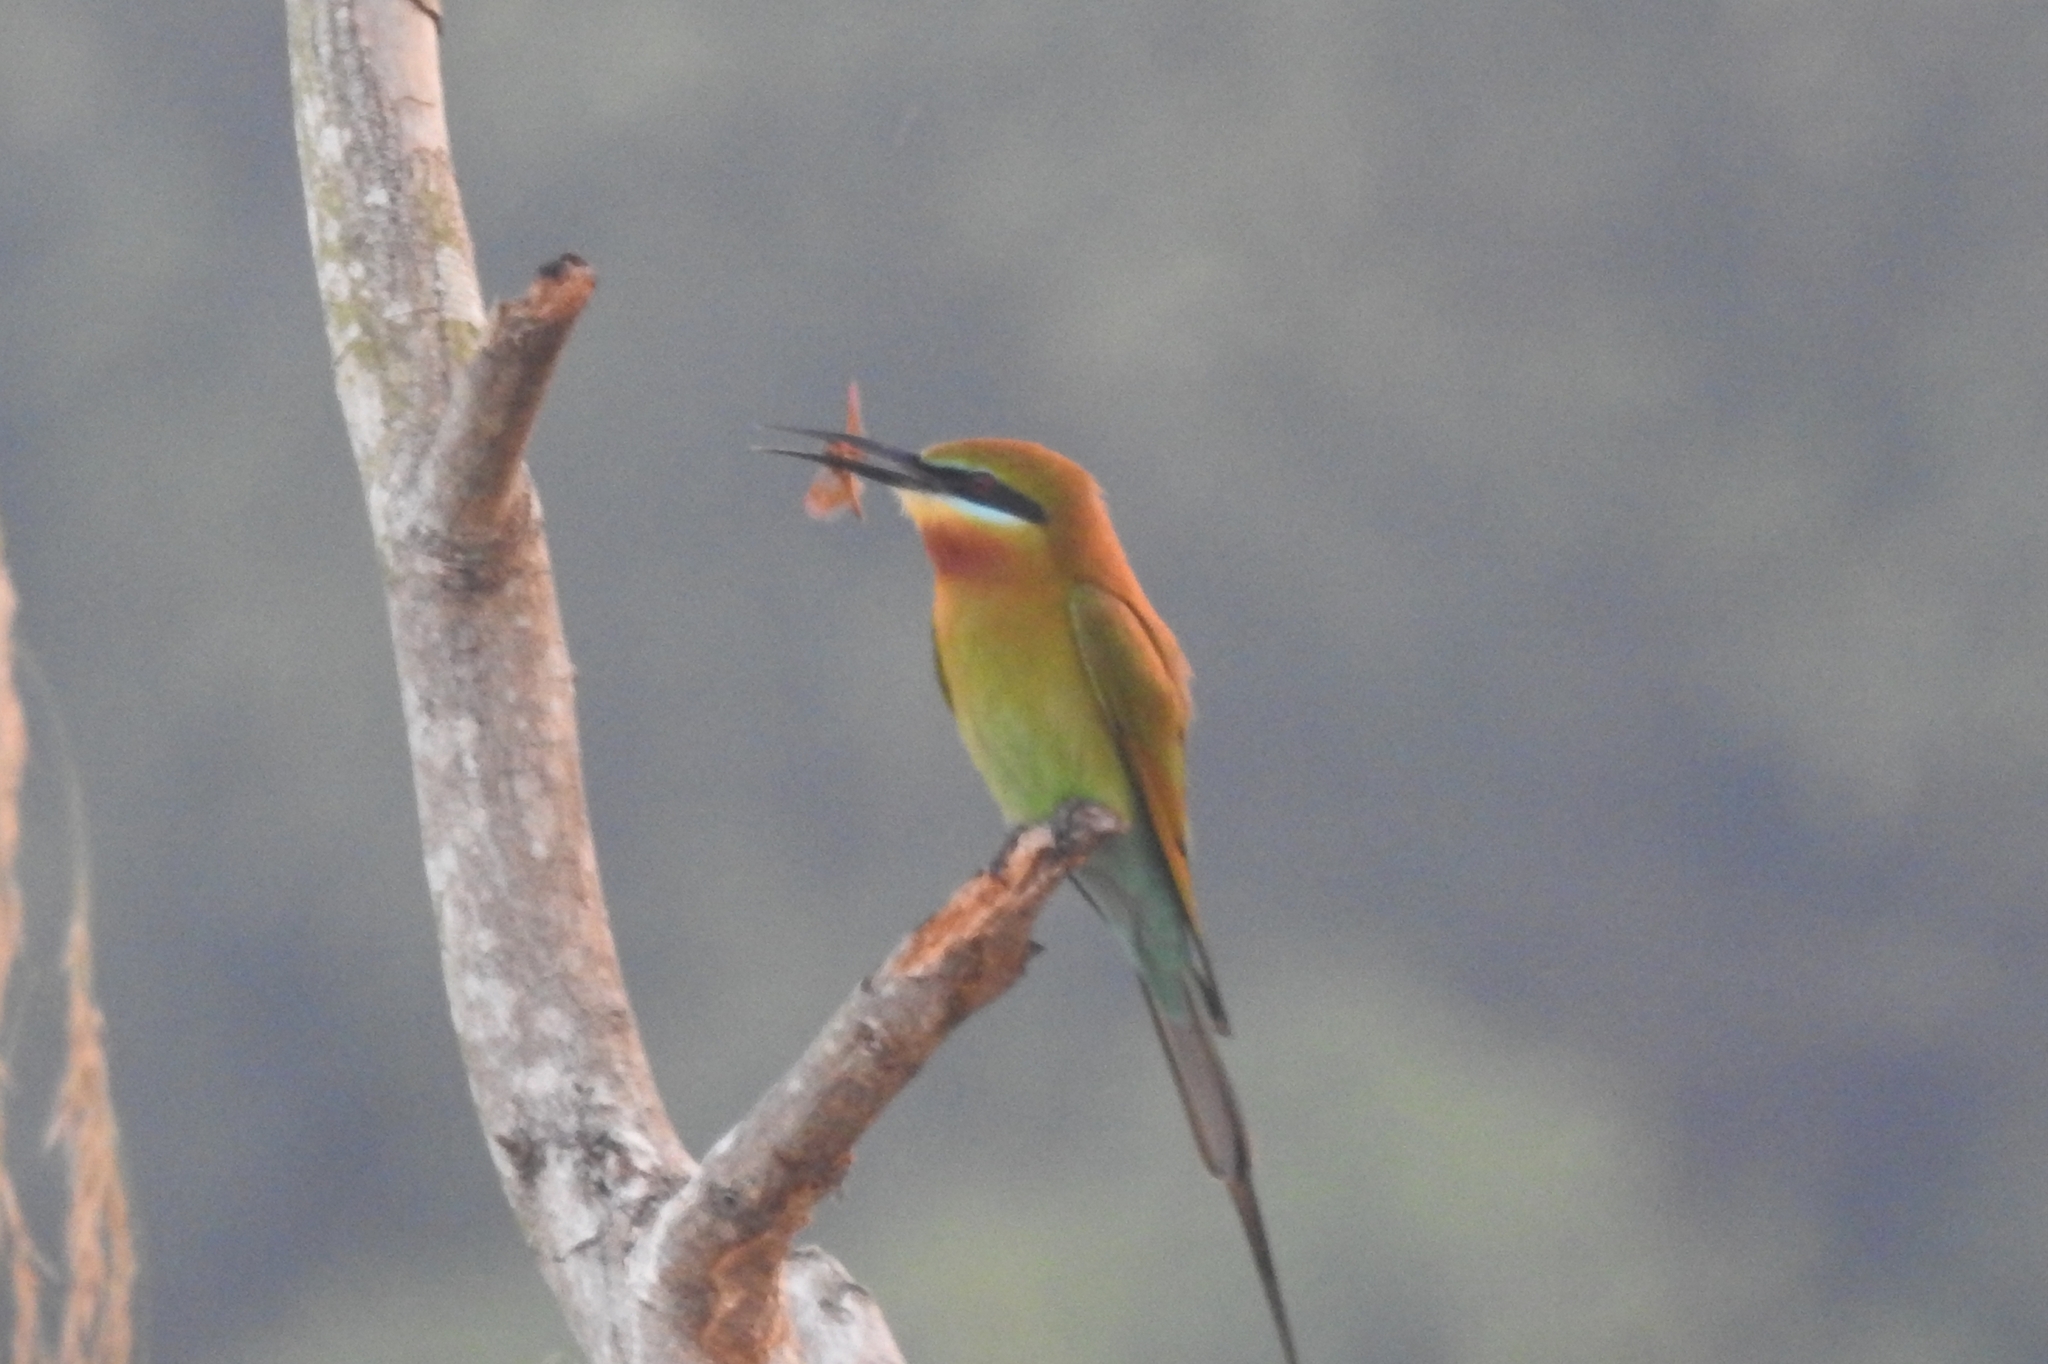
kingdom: Animalia
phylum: Chordata
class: Aves
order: Coraciiformes
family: Meropidae
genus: Merops
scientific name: Merops philippinus
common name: Blue-tailed bee-eater
